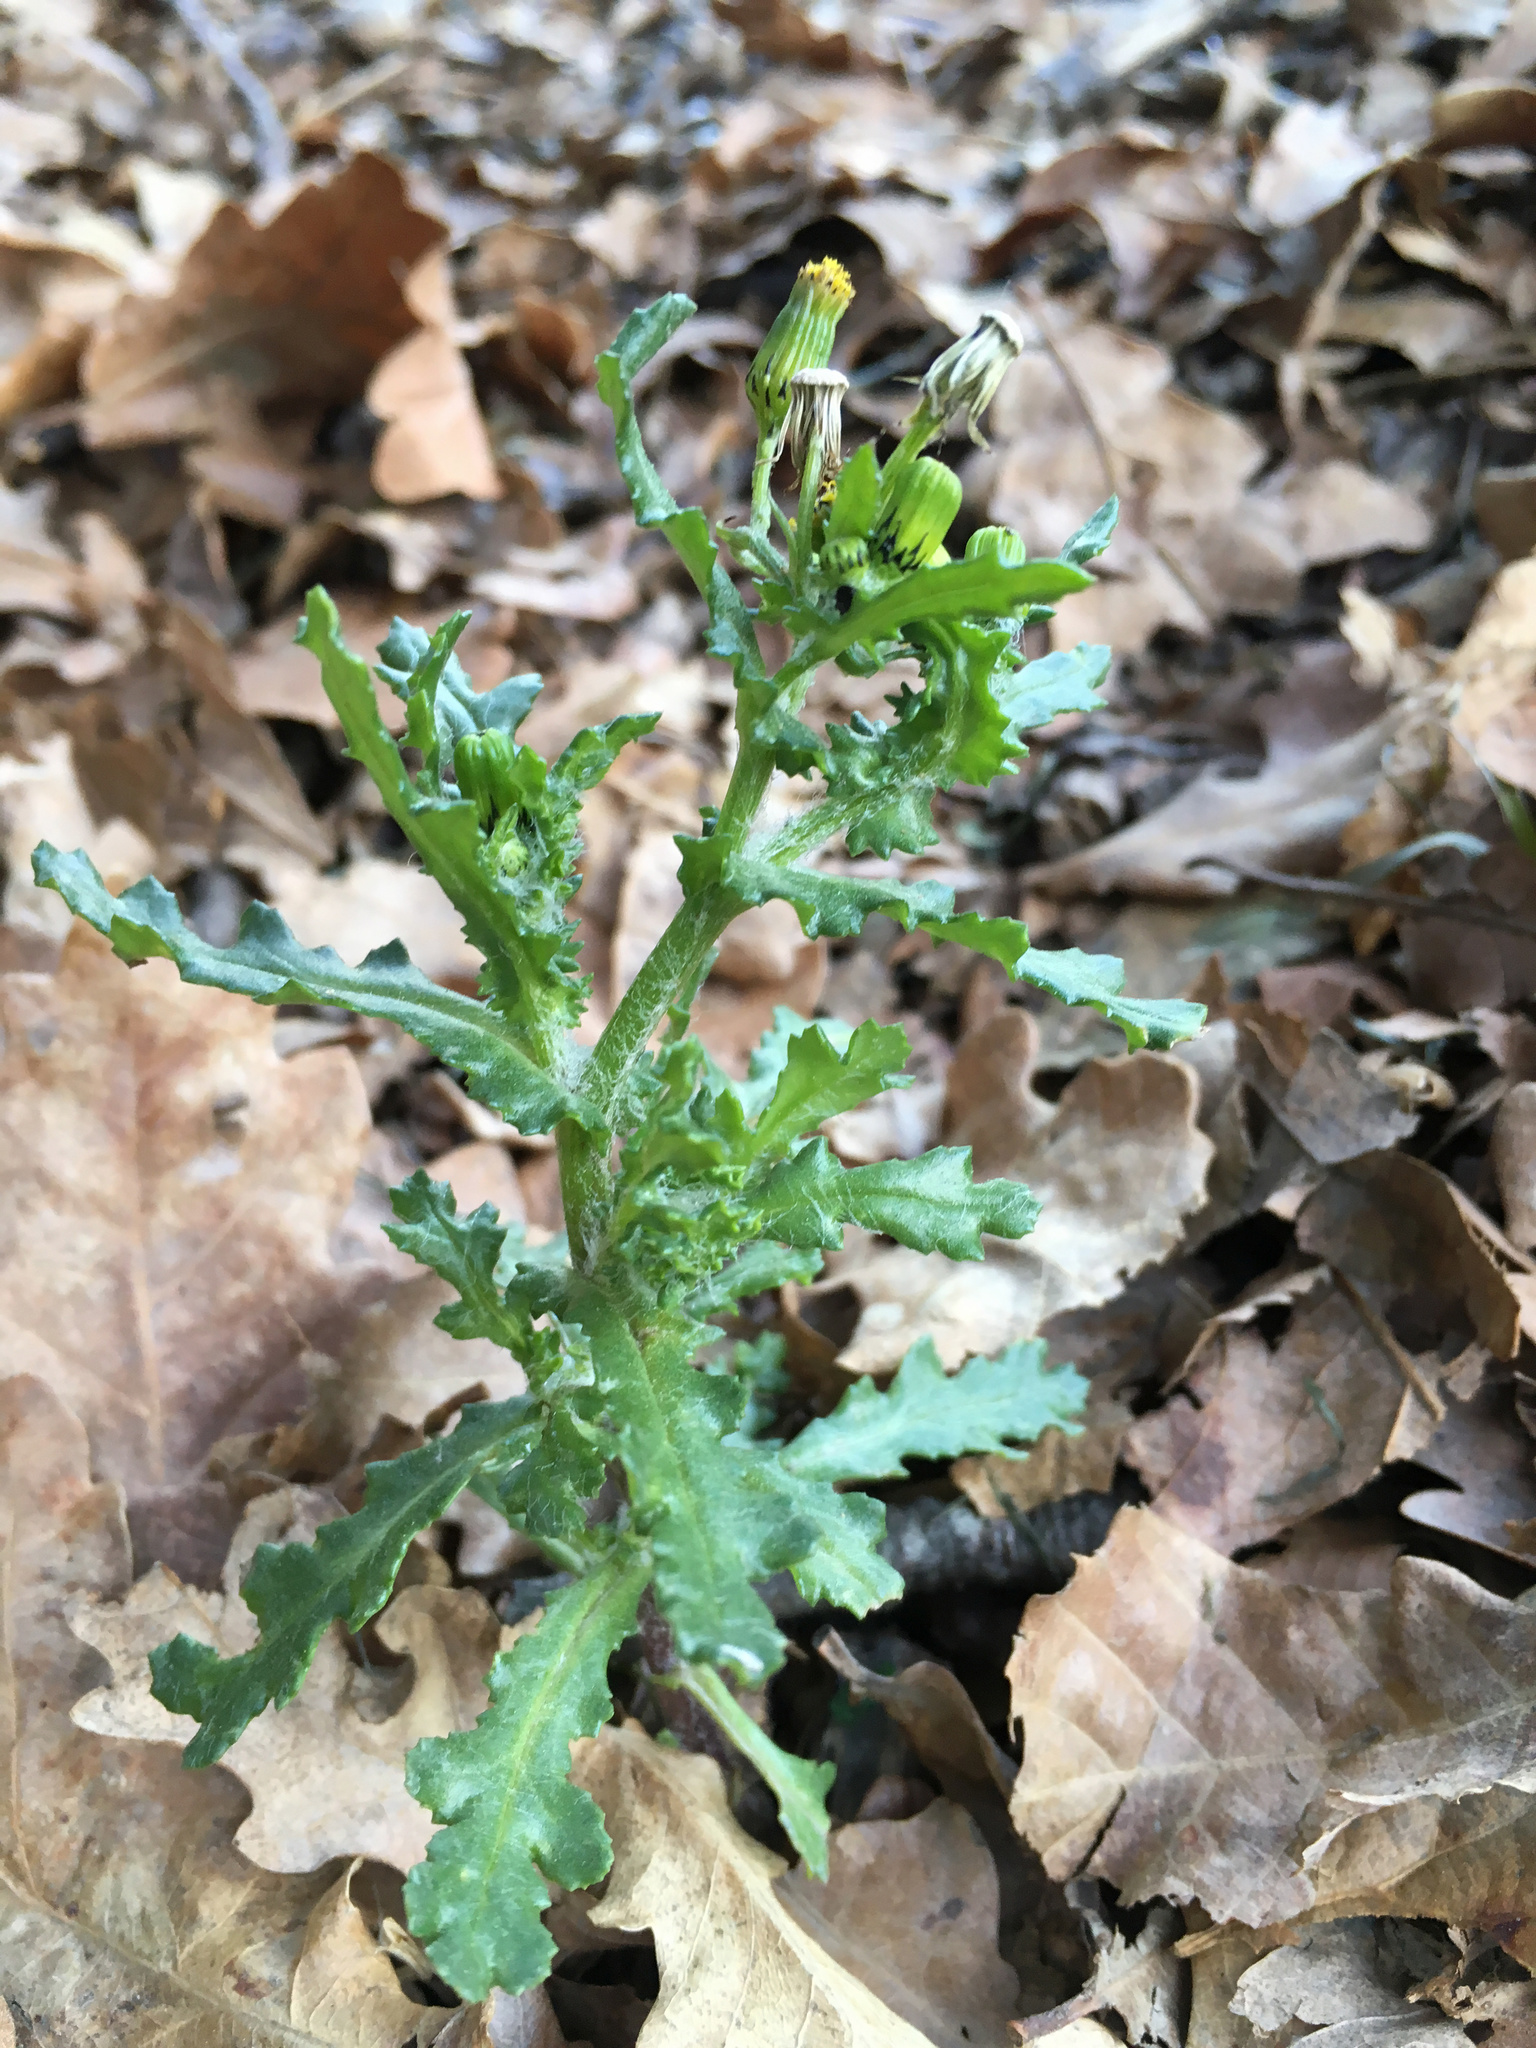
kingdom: Plantae
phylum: Tracheophyta
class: Magnoliopsida
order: Asterales
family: Asteraceae
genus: Senecio
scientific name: Senecio vulgaris
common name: Old-man-in-the-spring
